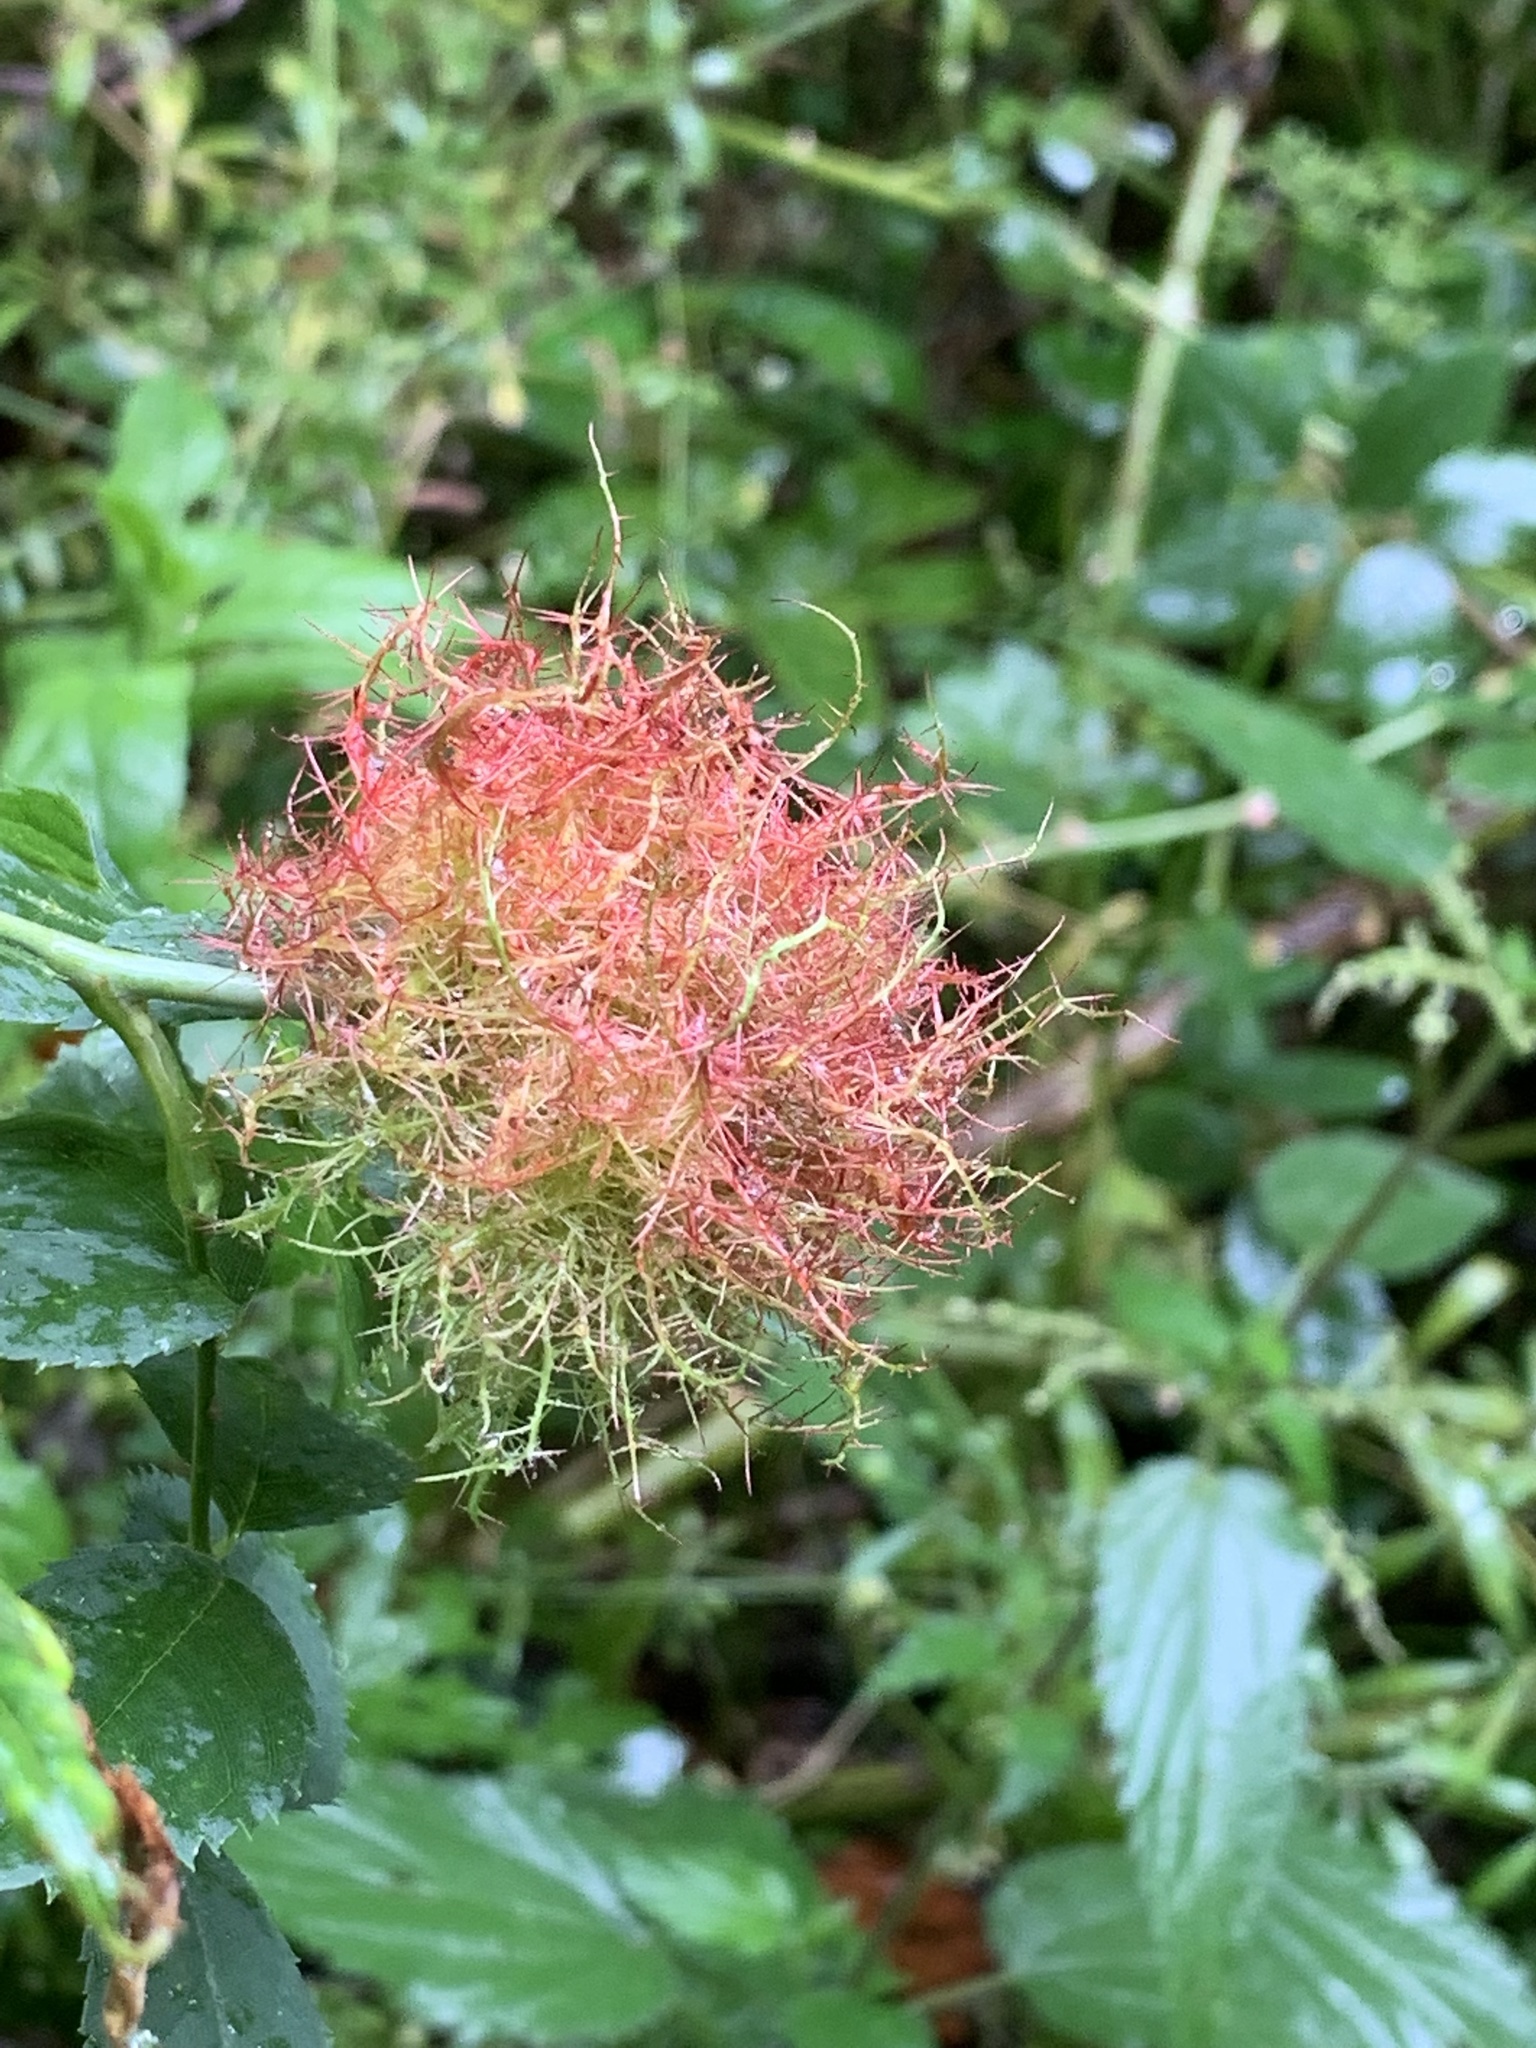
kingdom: Animalia
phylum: Arthropoda
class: Insecta
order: Hymenoptera
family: Cynipidae
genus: Diplolepis
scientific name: Diplolepis rosae
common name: Bedeguar gall
